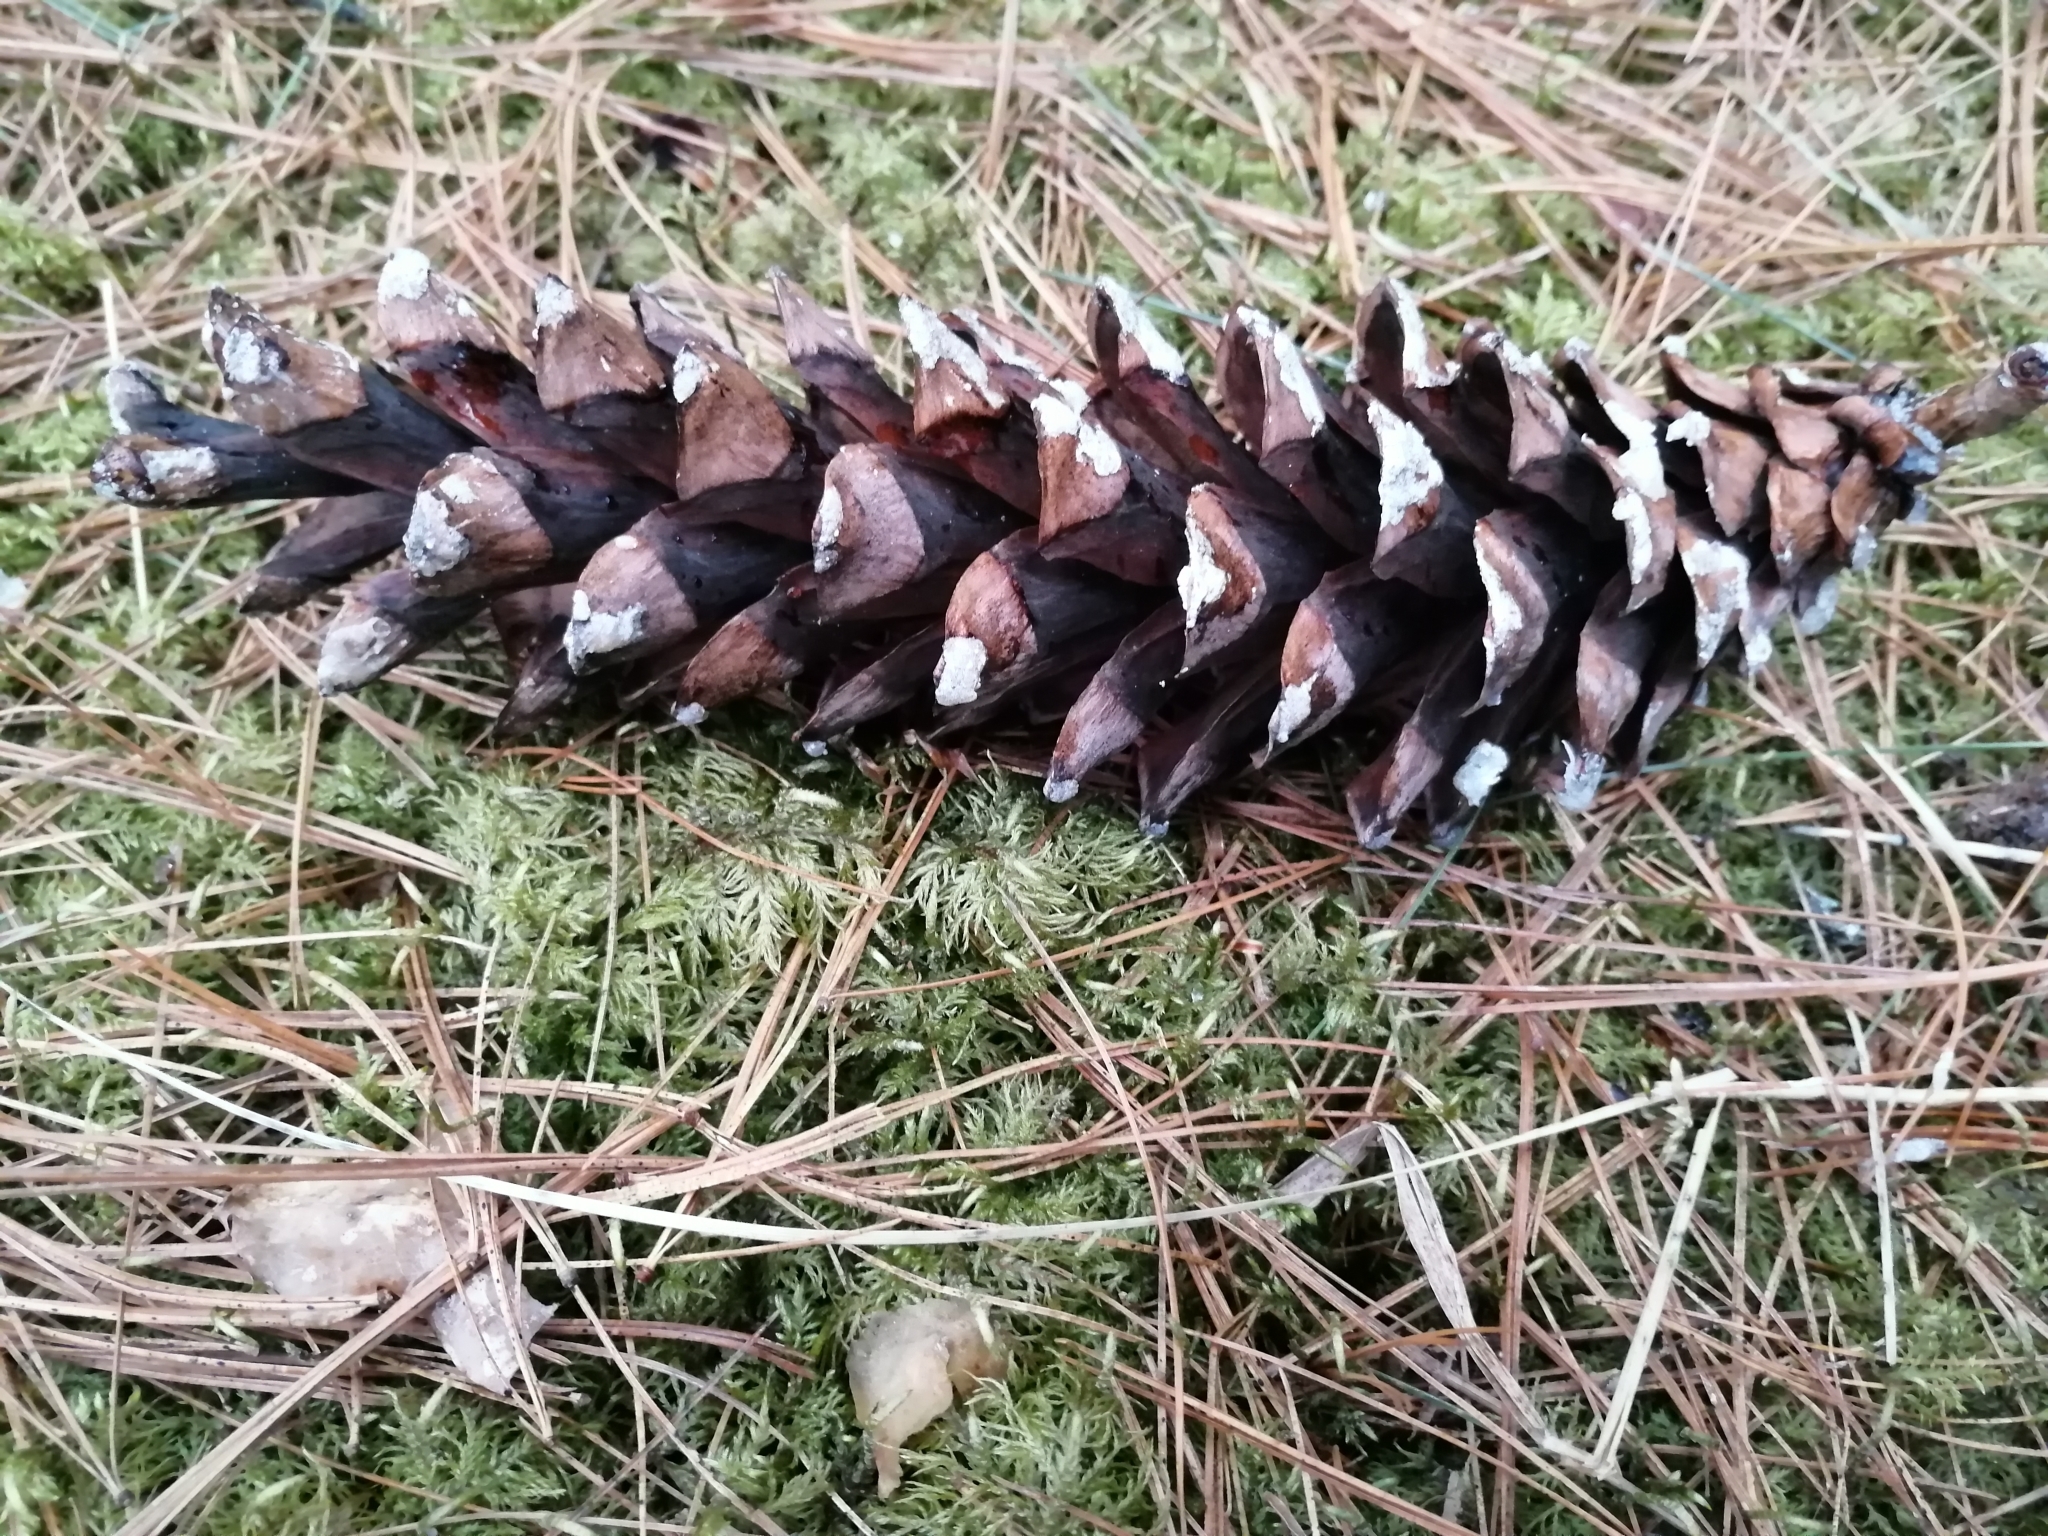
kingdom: Plantae
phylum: Tracheophyta
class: Pinopsida
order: Pinales
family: Pinaceae
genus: Pinus
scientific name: Pinus strobus
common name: Weymouth pine
